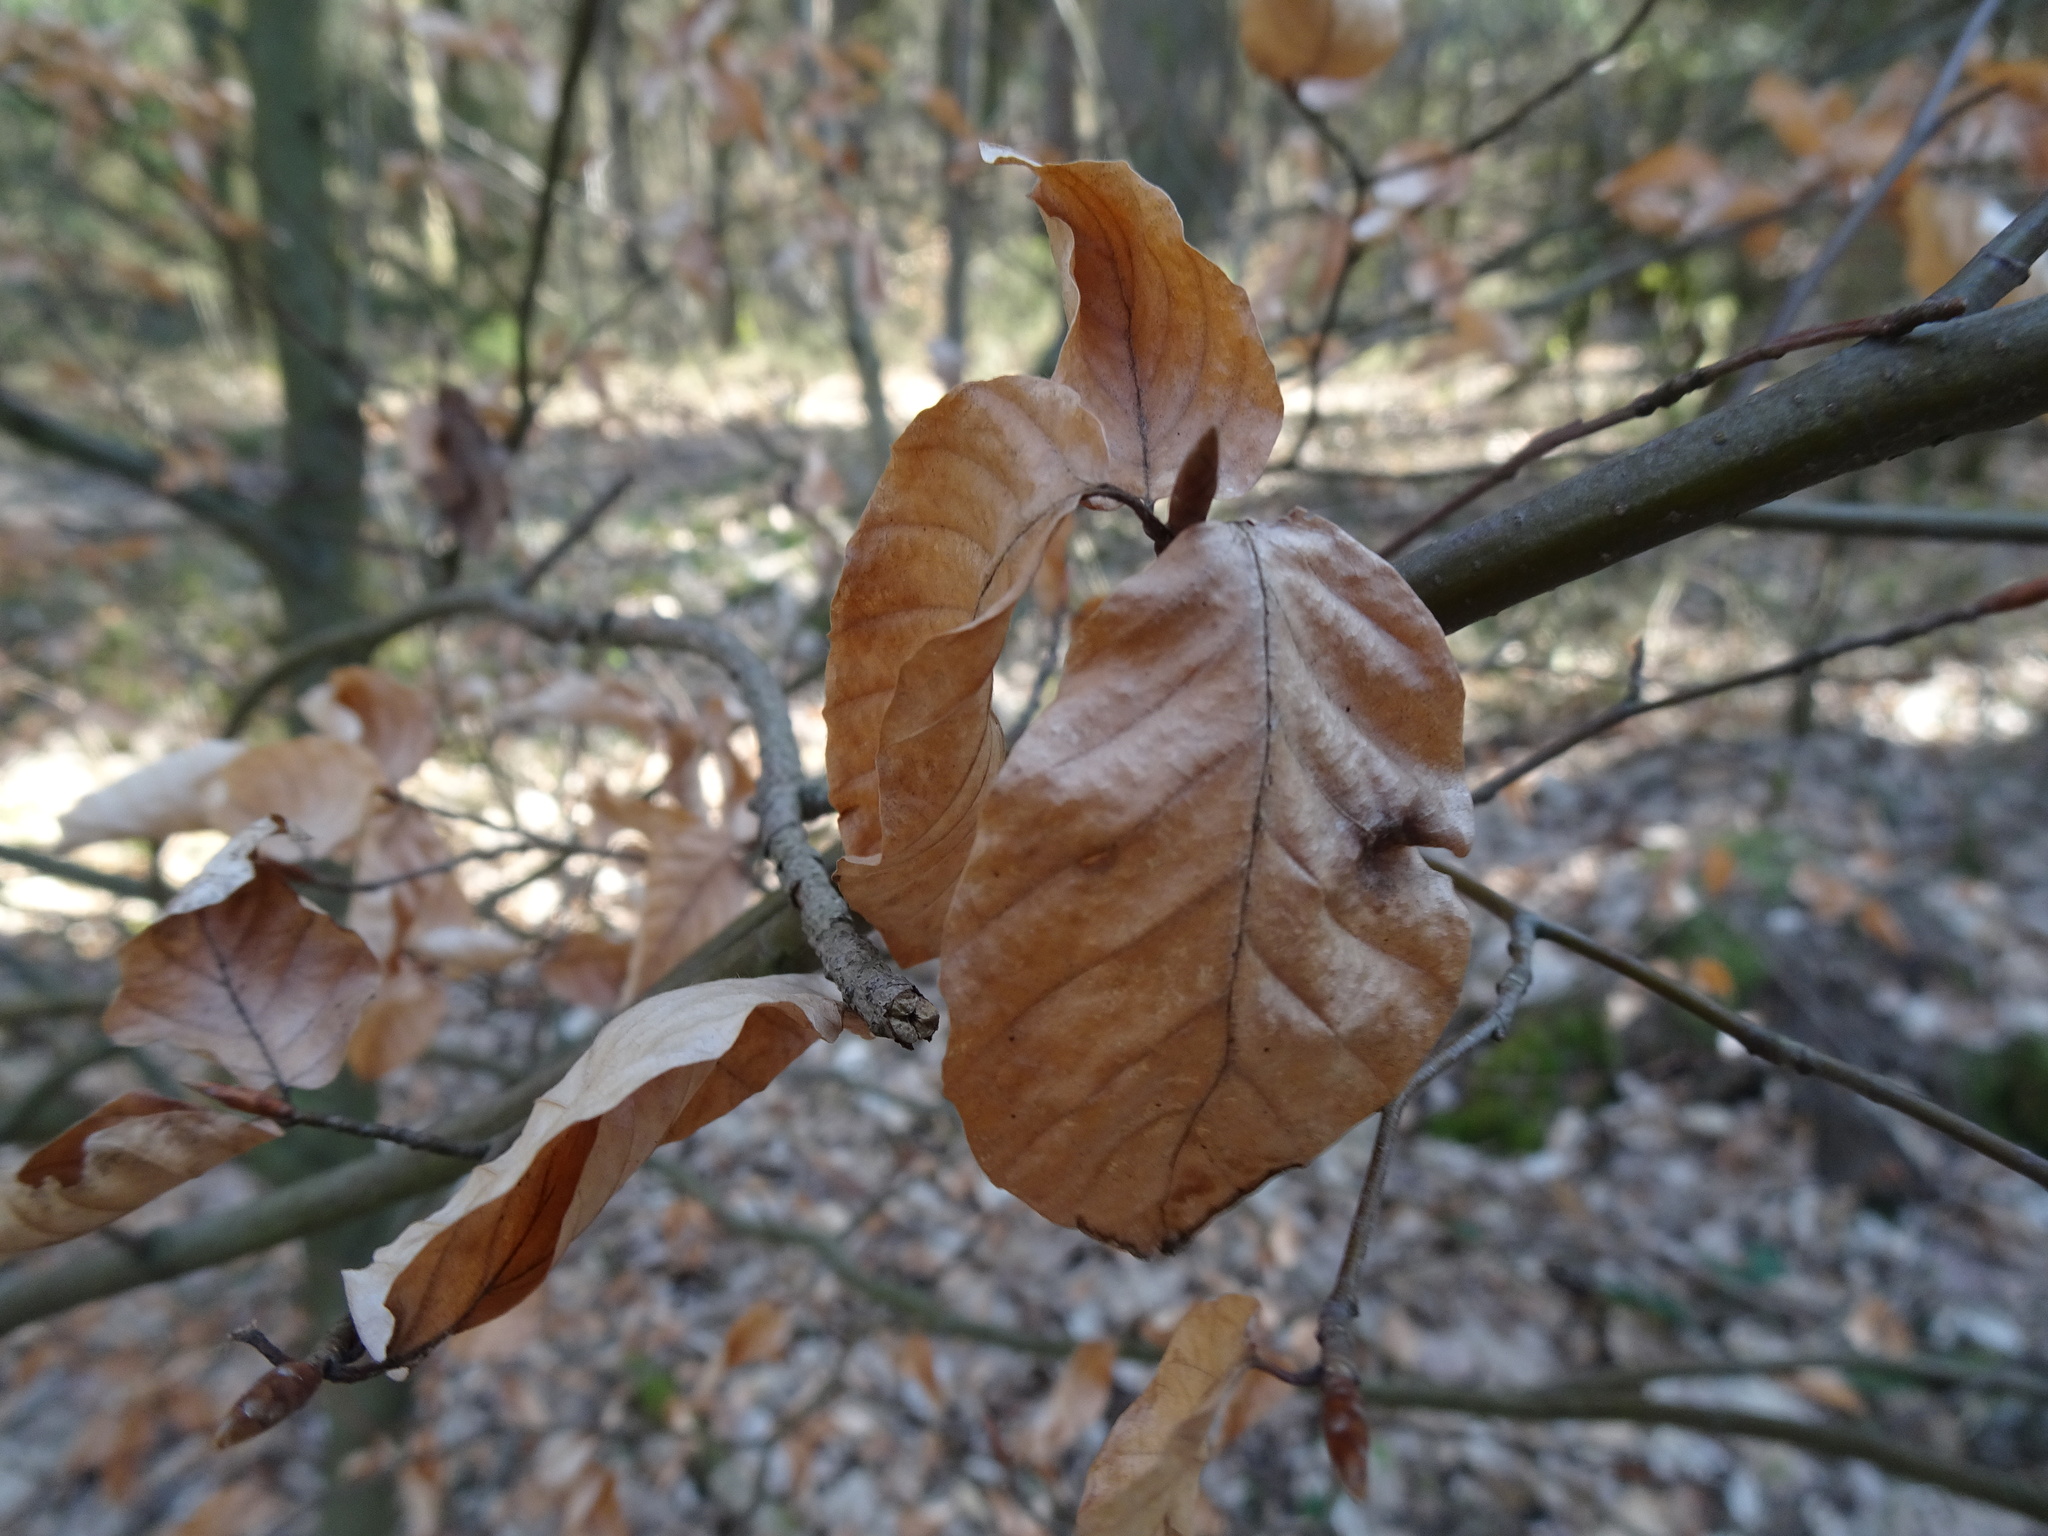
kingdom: Plantae
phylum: Tracheophyta
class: Magnoliopsida
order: Fagales
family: Fagaceae
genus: Fagus
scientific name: Fagus sylvatica
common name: Beech
